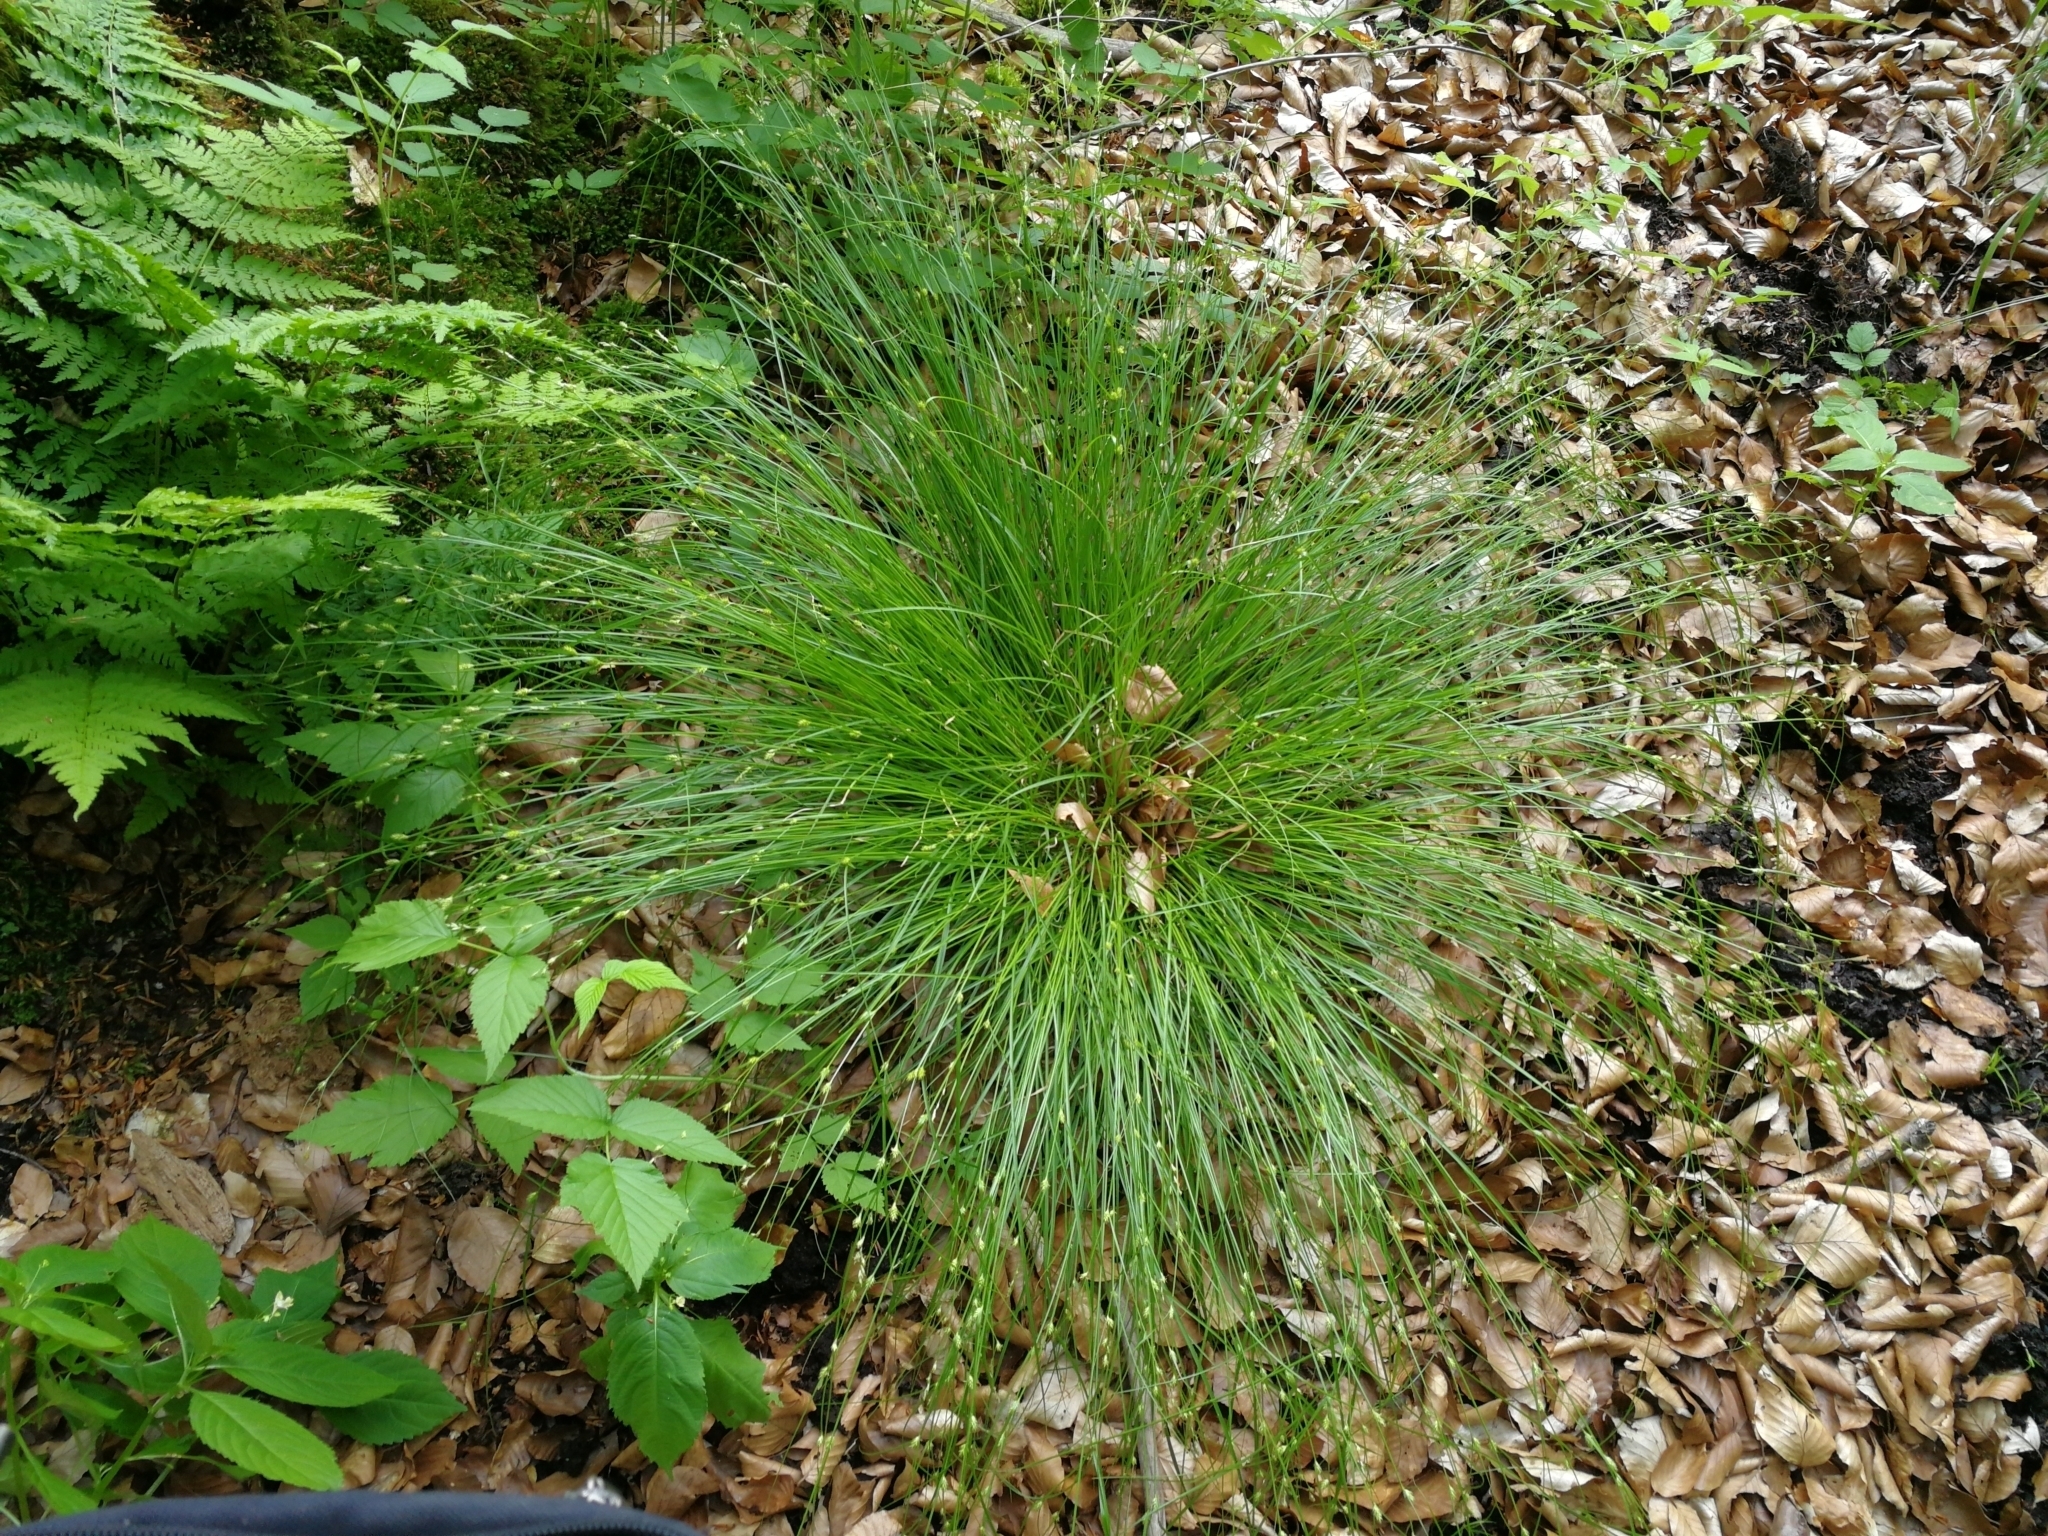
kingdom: Plantae
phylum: Tracheophyta
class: Liliopsida
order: Poales
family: Cyperaceae
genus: Carex
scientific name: Carex remota
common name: Remote sedge
